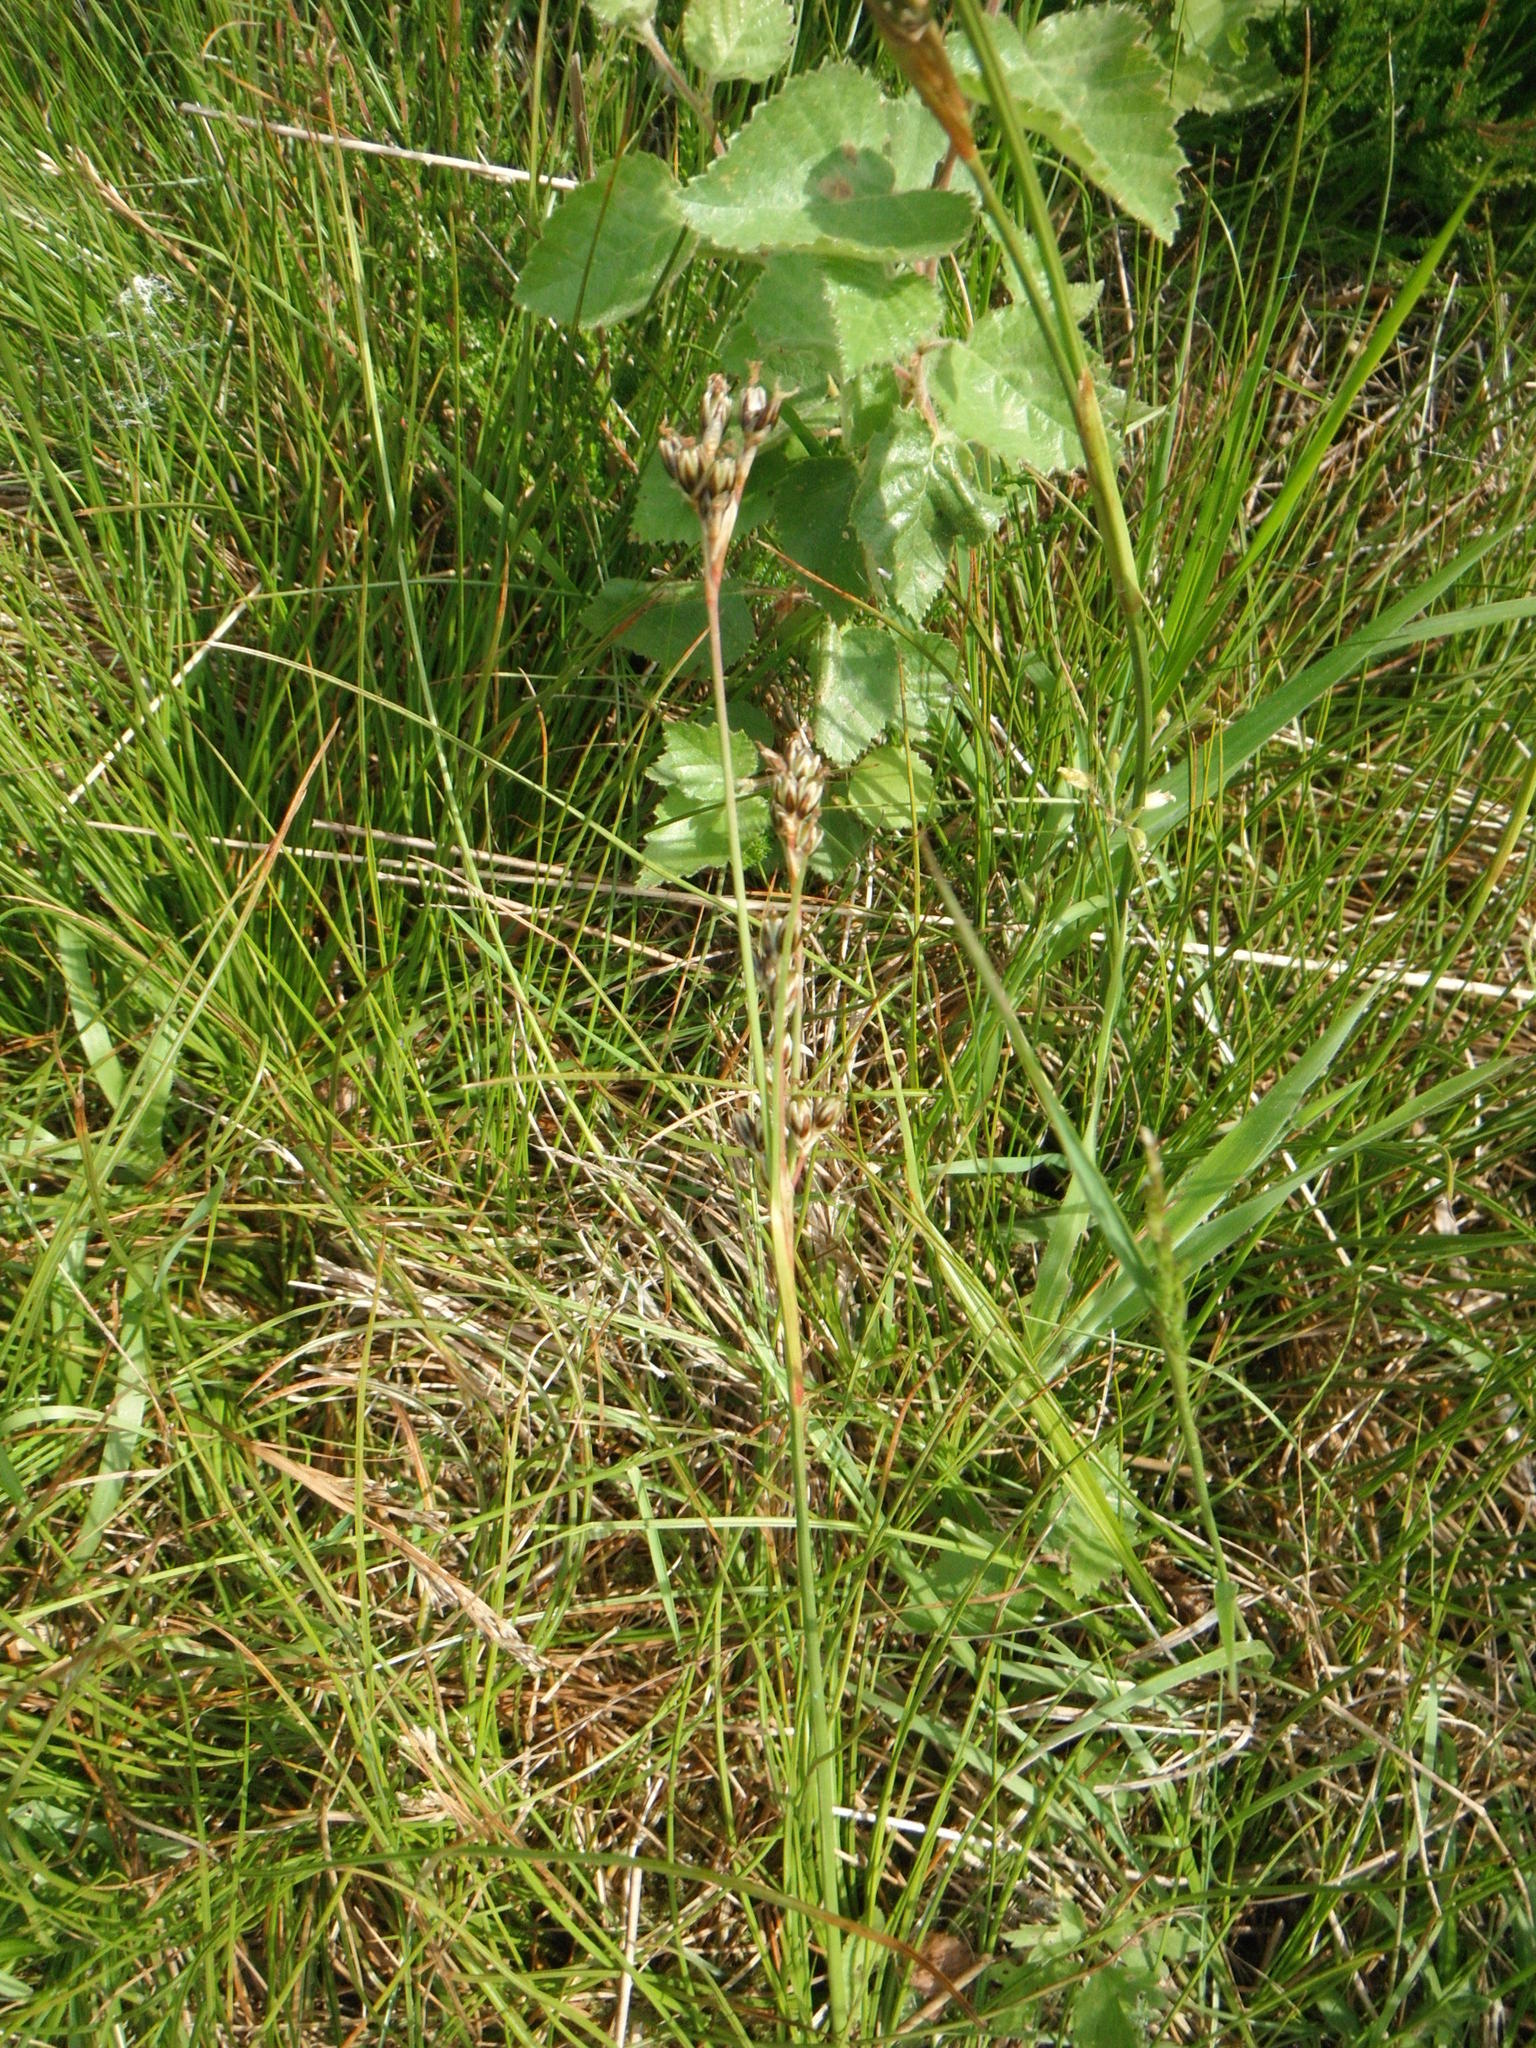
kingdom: Plantae
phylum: Tracheophyta
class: Liliopsida
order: Poales
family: Juncaceae
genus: Juncus
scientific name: Juncus squarrosus
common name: Heath rush
